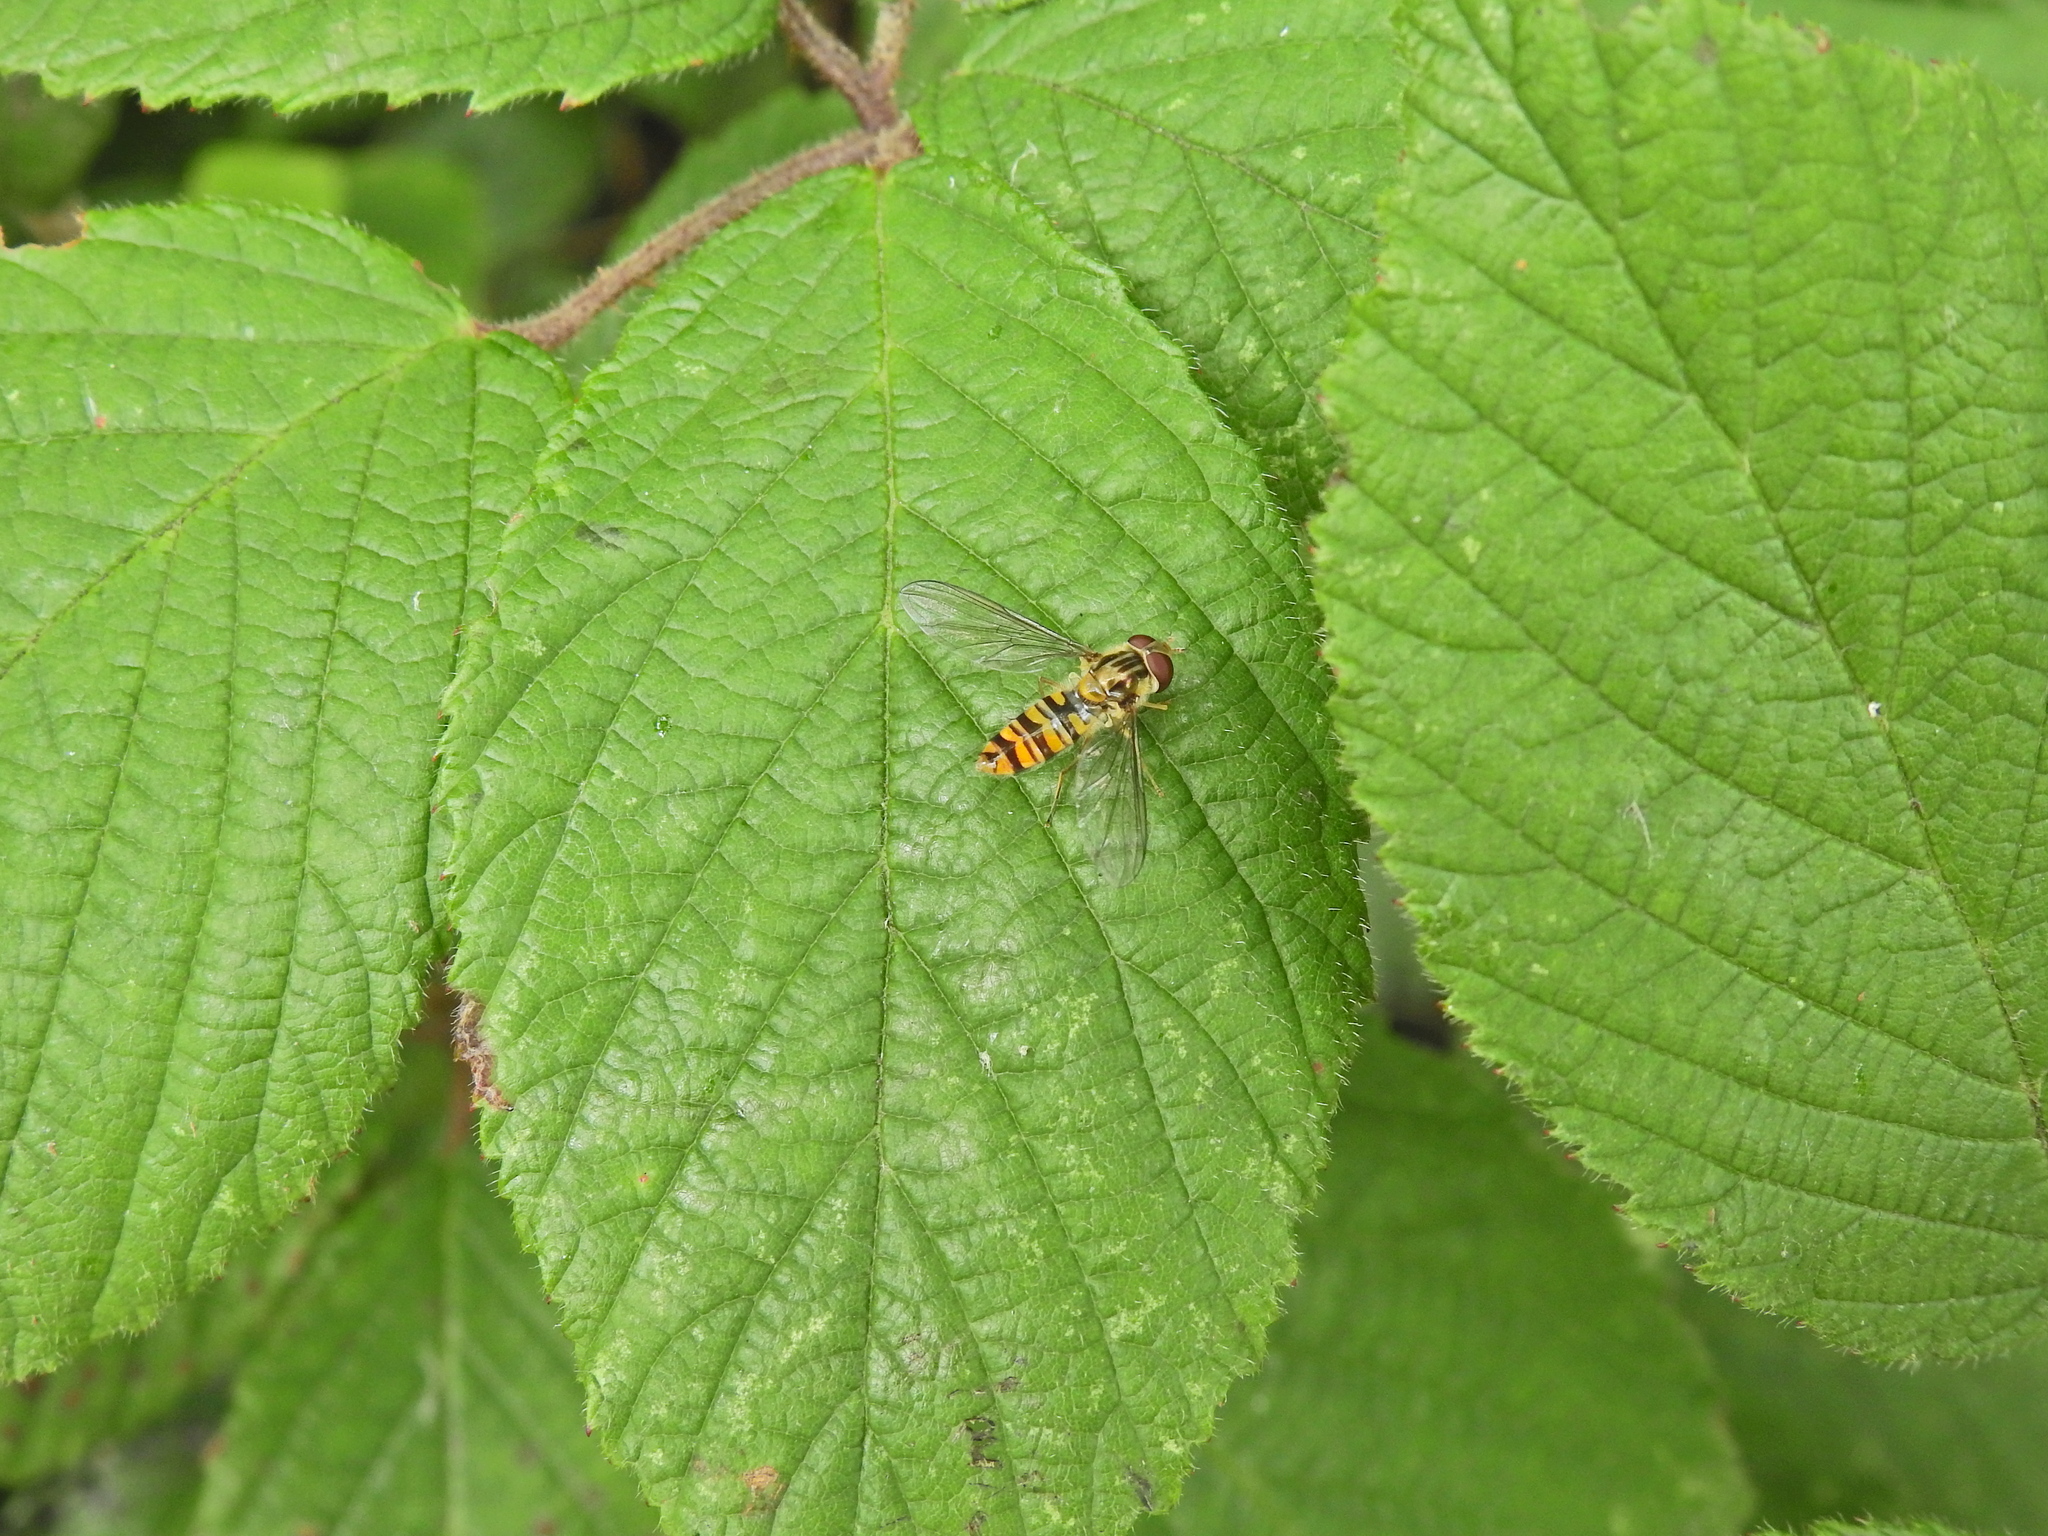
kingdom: Animalia
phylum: Arthropoda
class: Insecta
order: Diptera
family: Syrphidae
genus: Episyrphus
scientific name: Episyrphus balteatus
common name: Marmalade hoverfly
